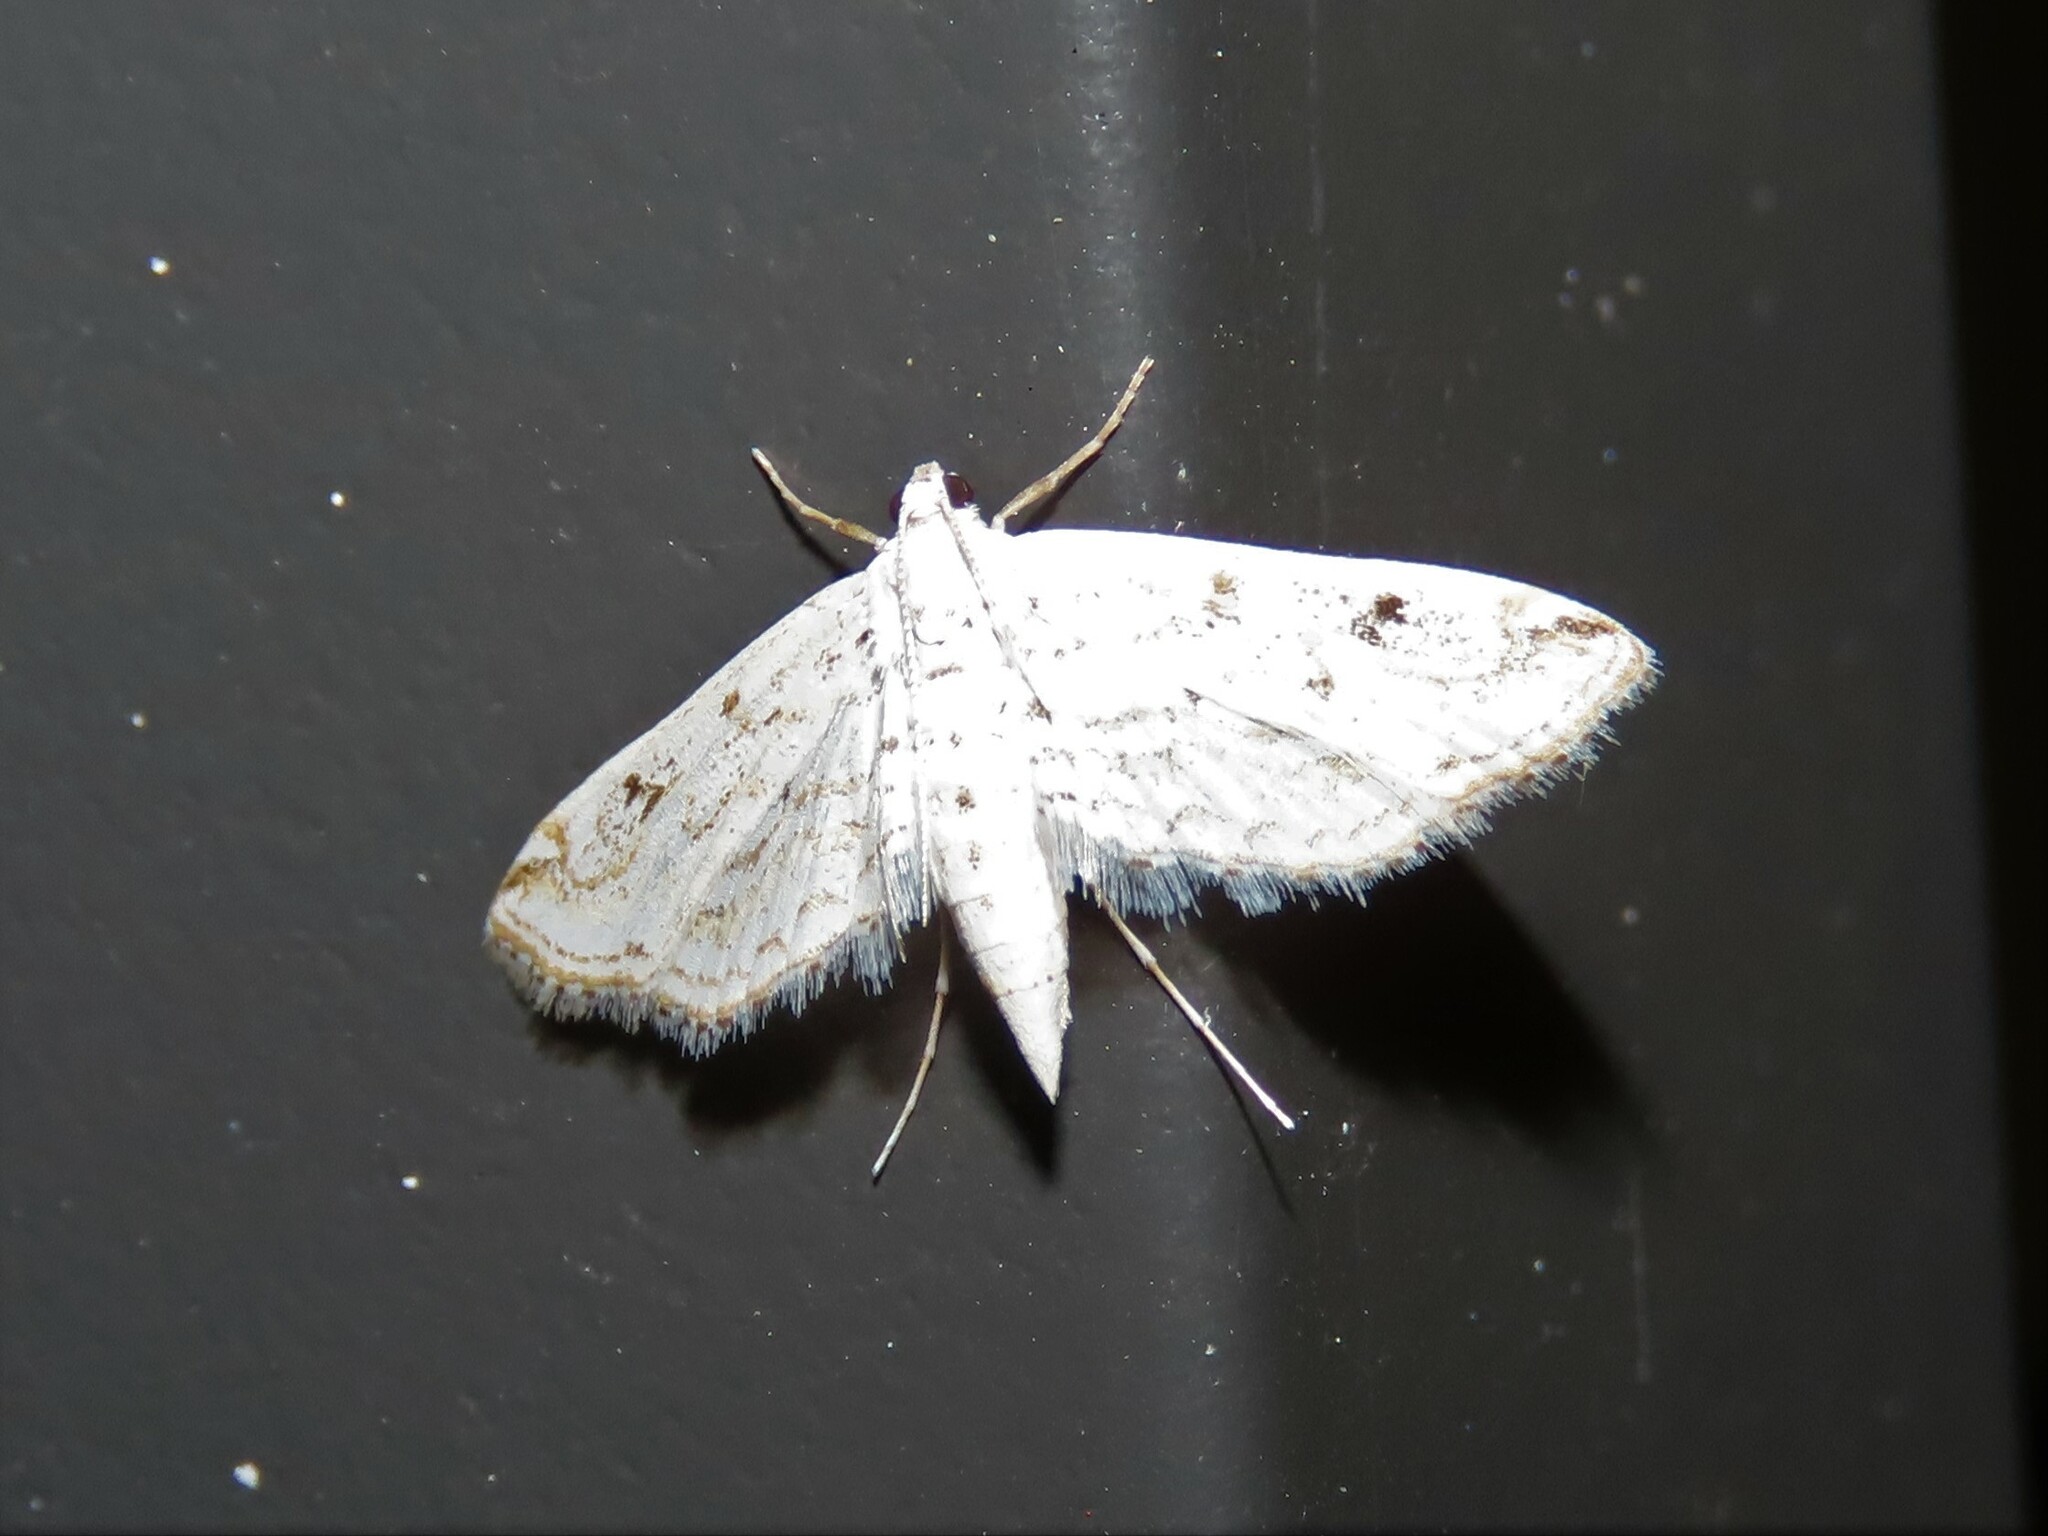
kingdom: Animalia
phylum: Arthropoda
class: Insecta
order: Lepidoptera
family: Crambidae
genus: Parapoynx
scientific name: Parapoynx allionealis
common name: Bladderwort casemaker
